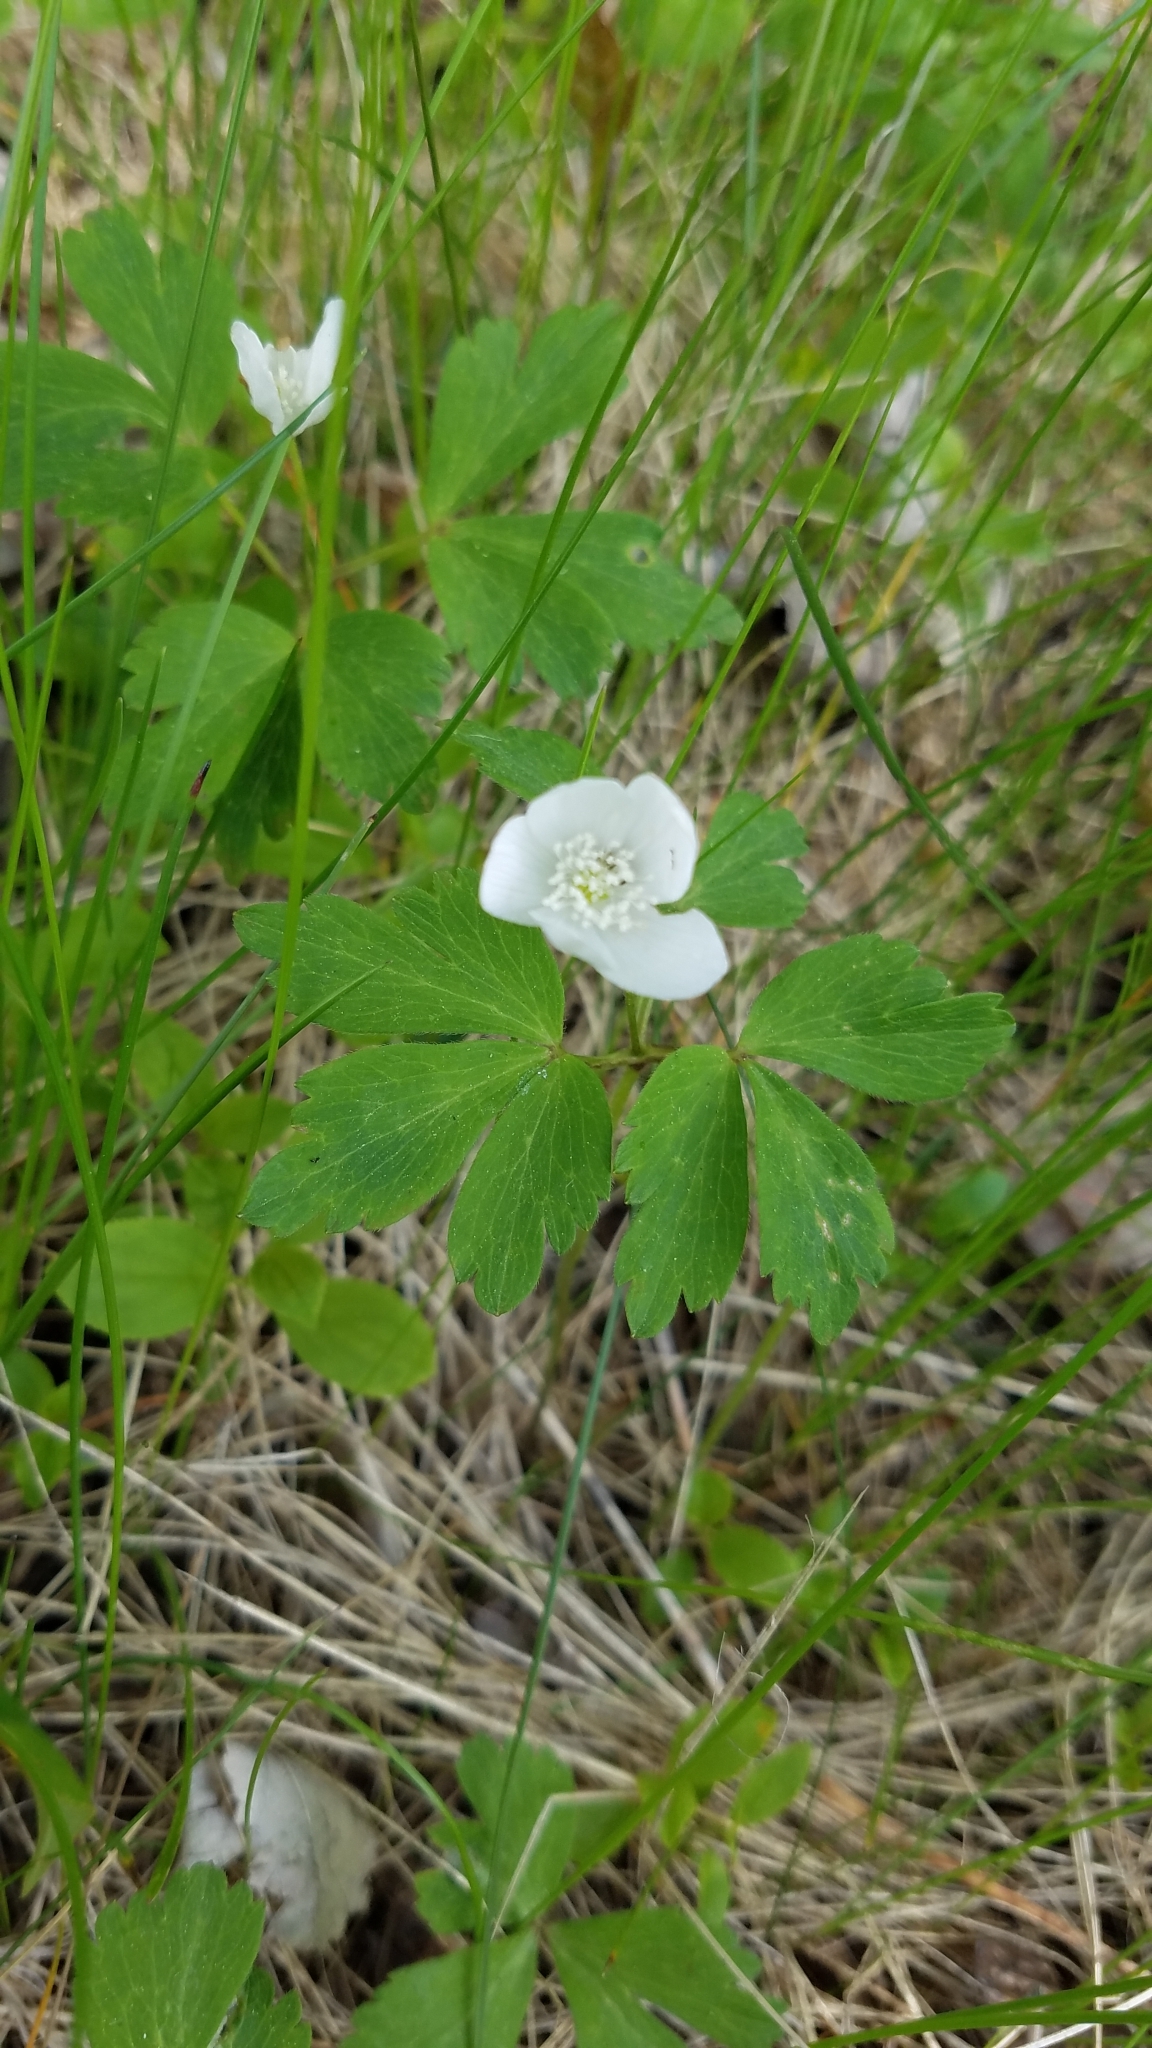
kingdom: Plantae
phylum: Tracheophyta
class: Magnoliopsida
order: Ranunculales
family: Ranunculaceae
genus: Anemone
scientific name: Anemone quinquefolia
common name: Wood anemone
